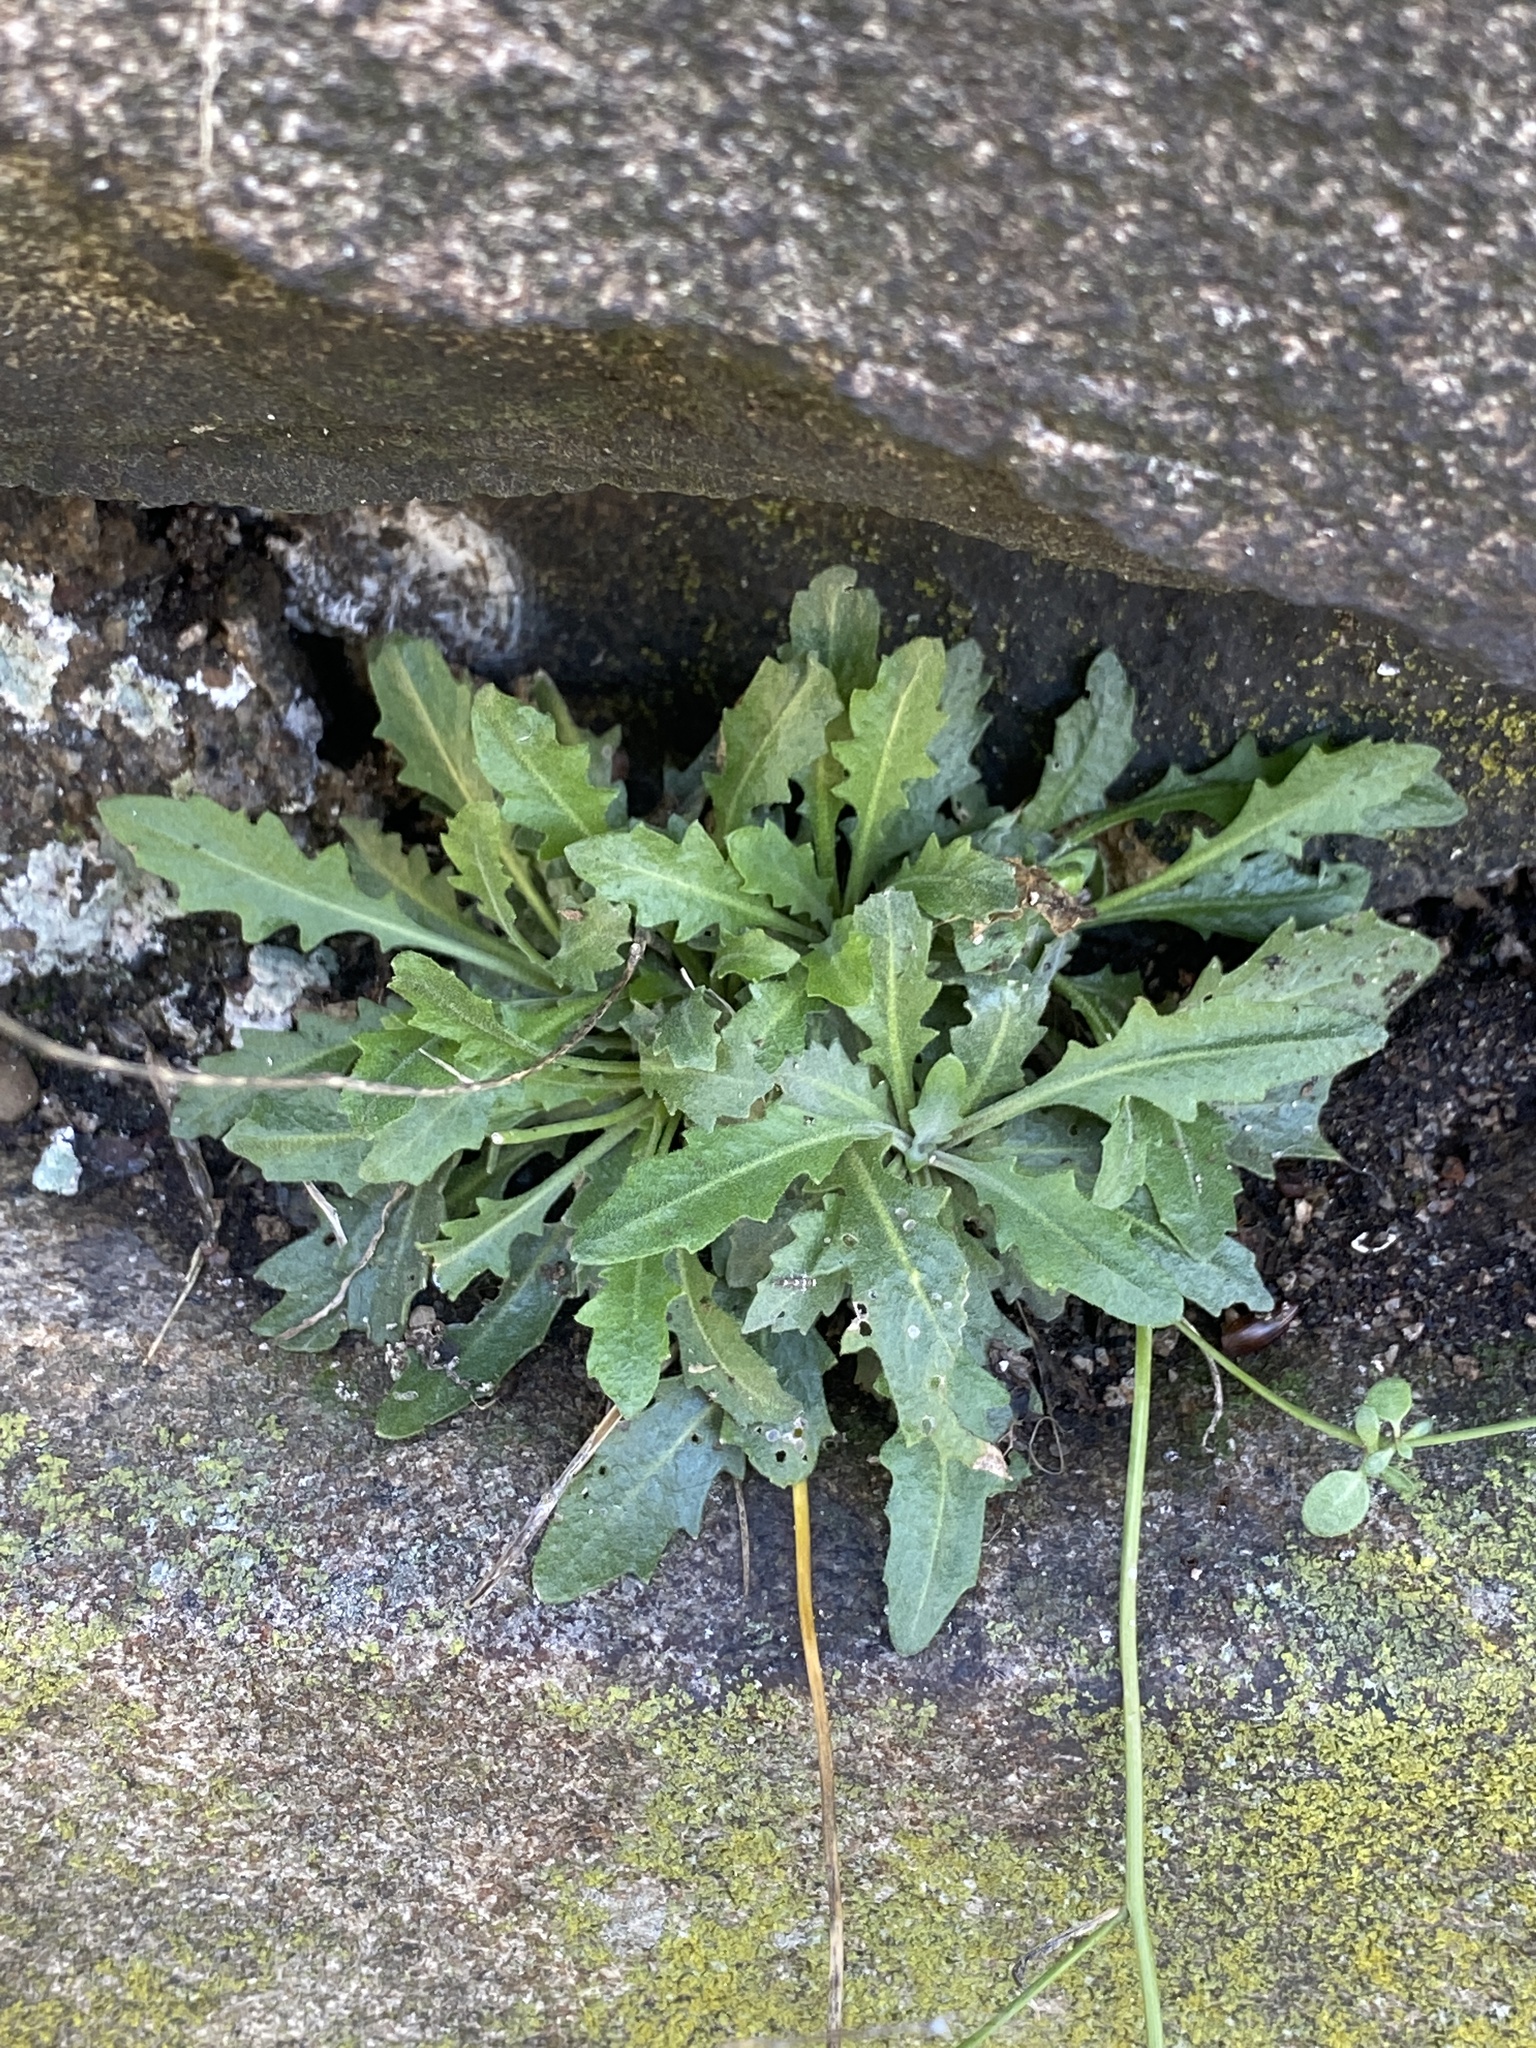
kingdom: Plantae
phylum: Tracheophyta
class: Magnoliopsida
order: Brassicales
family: Brassicaceae
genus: Arabidopsis
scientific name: Arabidopsis lyrata
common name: Lyrate rockcress
